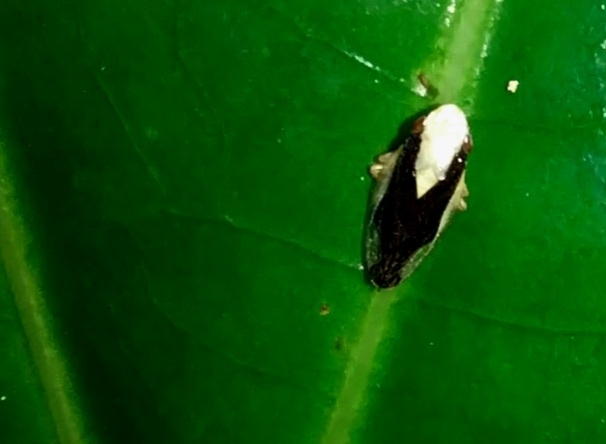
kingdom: Animalia
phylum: Arthropoda
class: Insecta
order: Hemiptera
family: Aphrophoridae
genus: Lallemandana
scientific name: Lallemandana rarotongae
